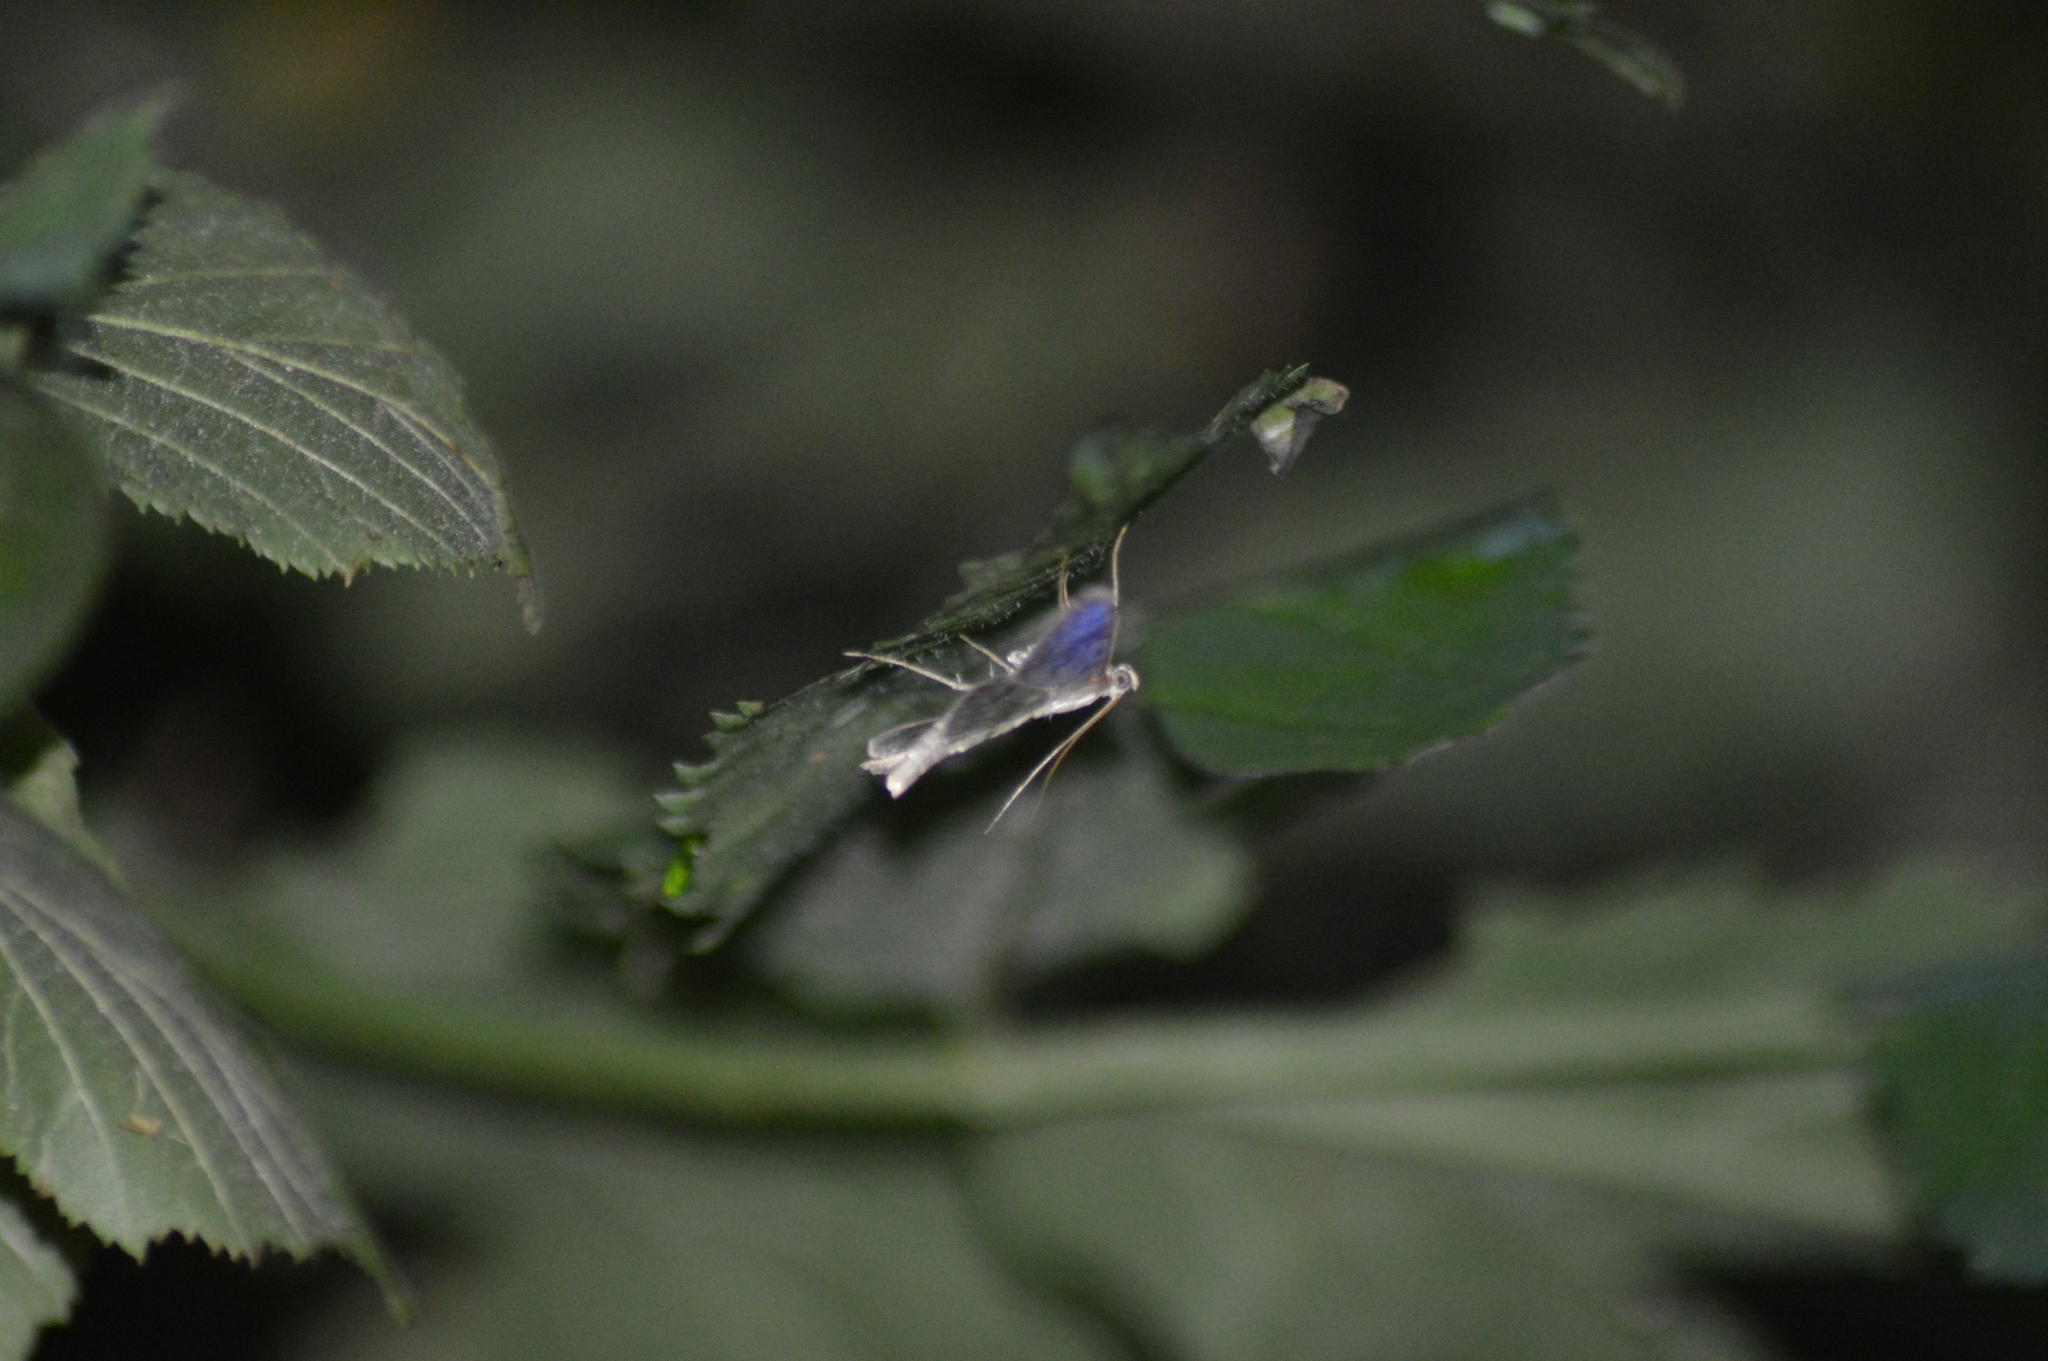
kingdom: Animalia
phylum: Arthropoda
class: Insecta
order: Lepidoptera
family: Crambidae
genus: Patania
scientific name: Patania ruralis
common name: Mother of pearl
